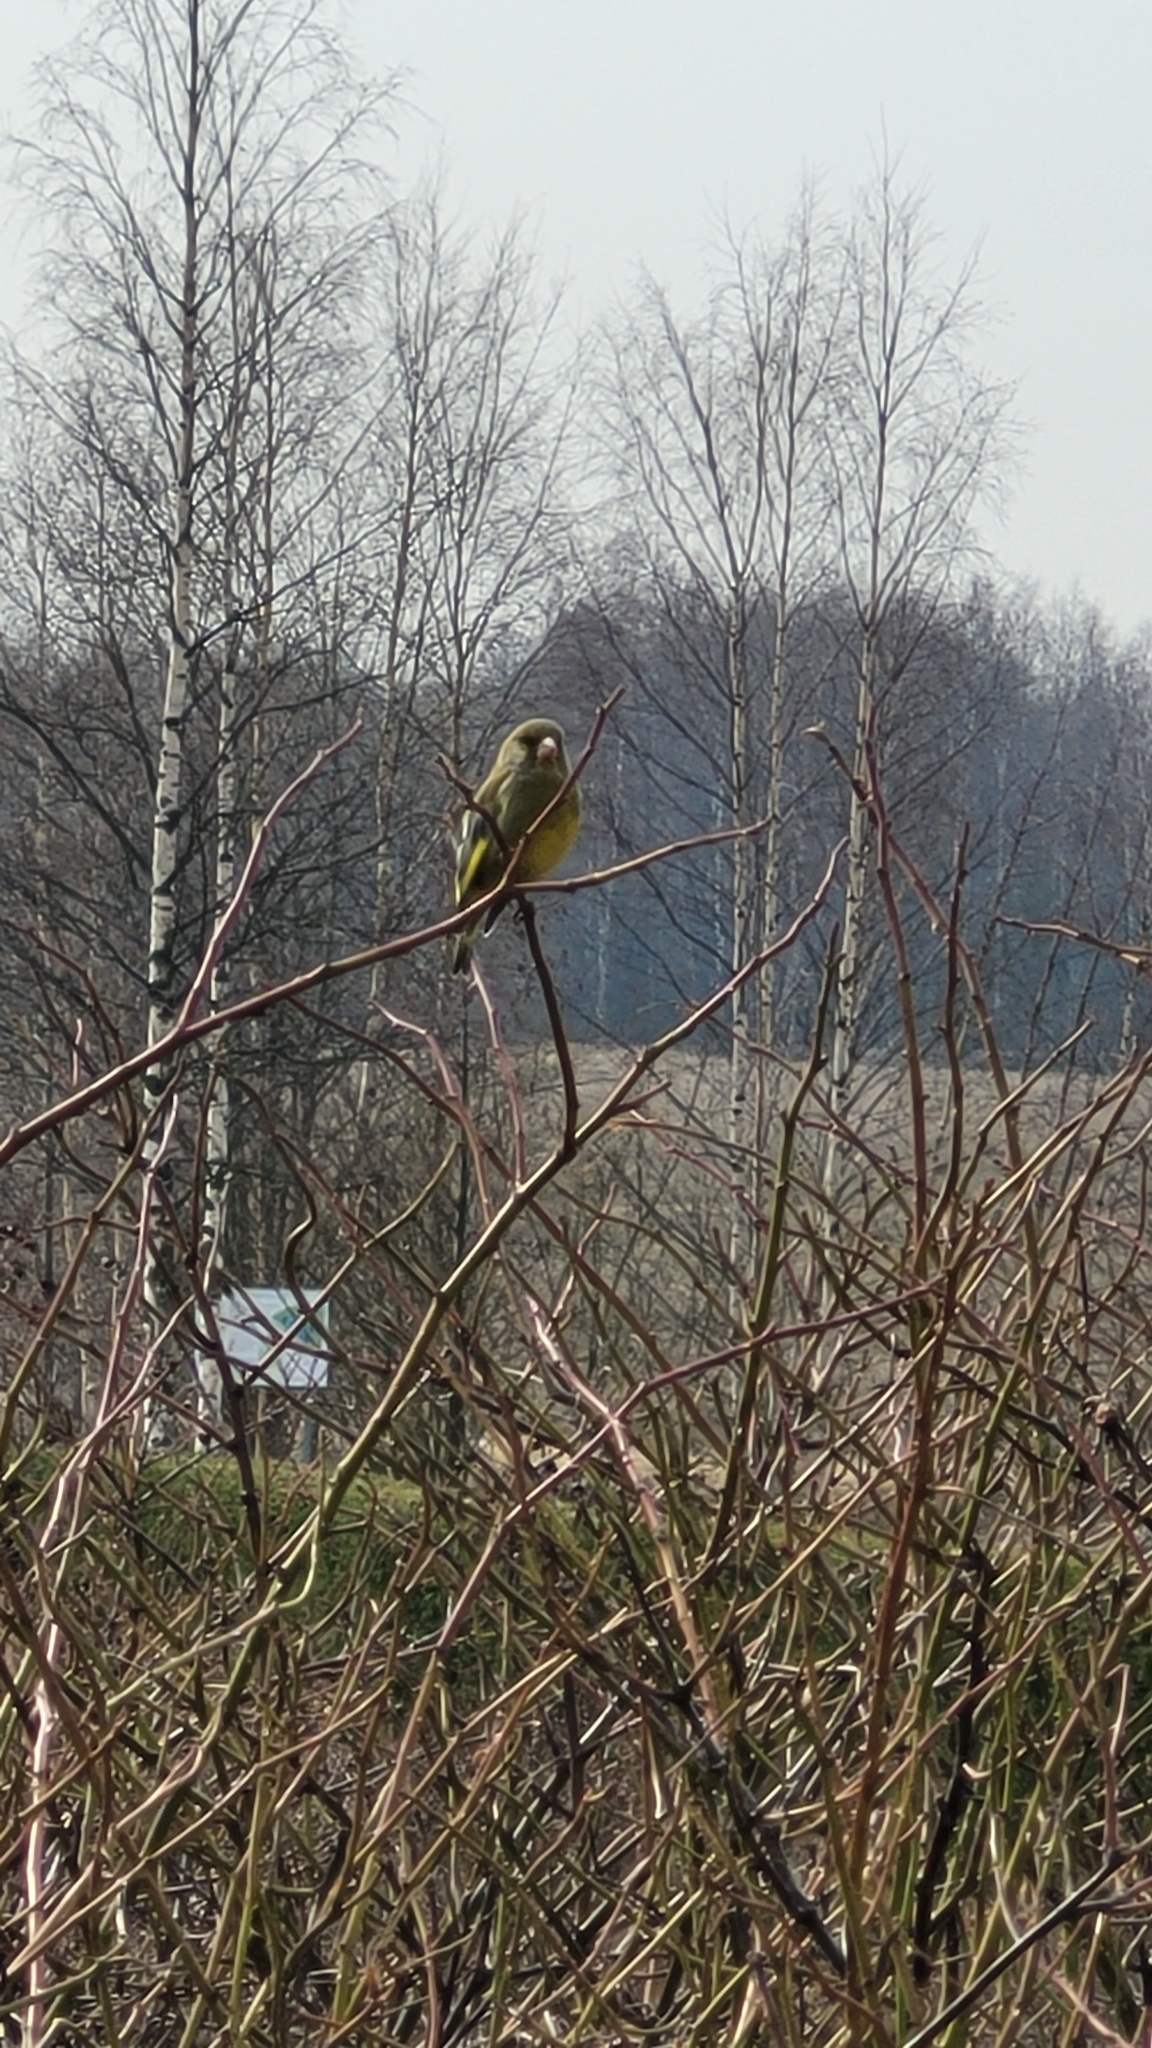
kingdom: Plantae
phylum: Tracheophyta
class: Liliopsida
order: Poales
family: Poaceae
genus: Chloris
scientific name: Chloris chloris
